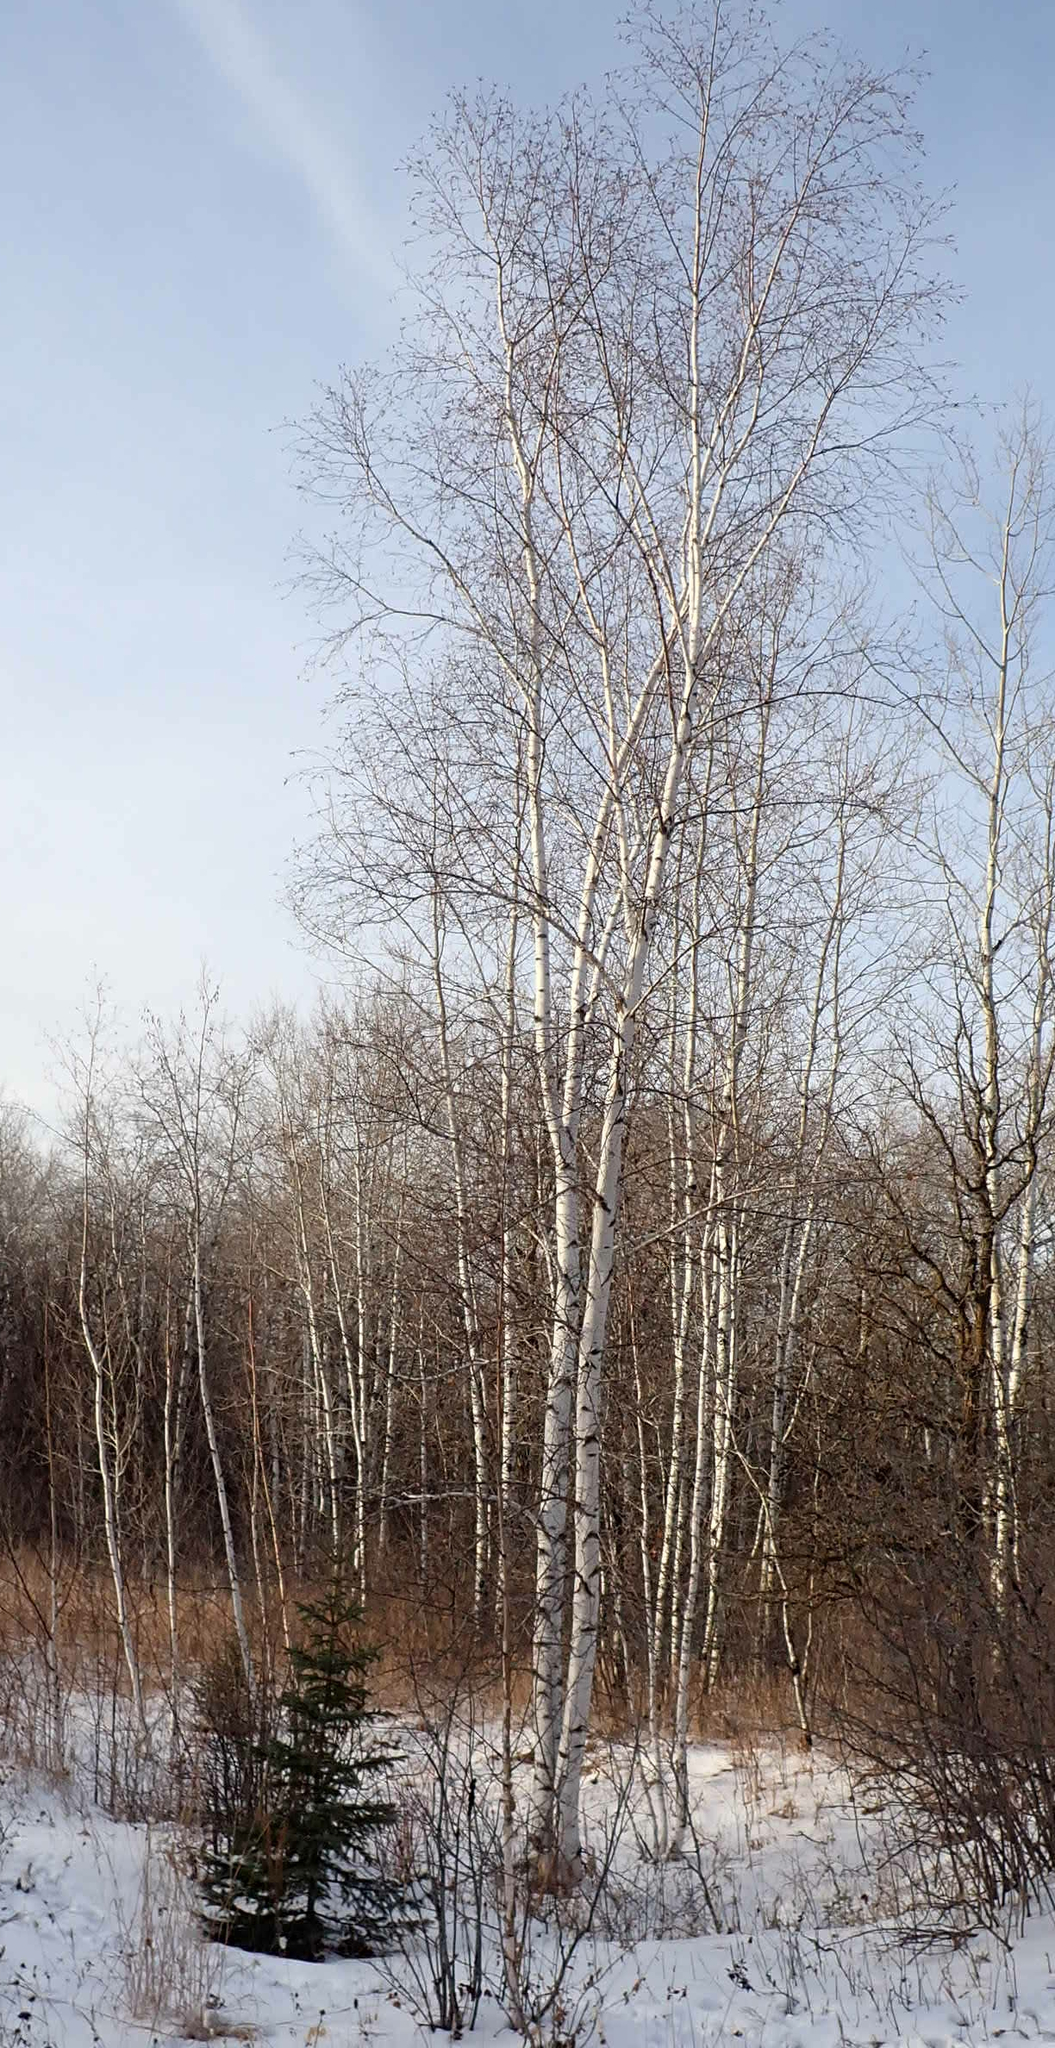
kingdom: Plantae
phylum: Tracheophyta
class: Magnoliopsida
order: Fagales
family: Betulaceae
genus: Betula
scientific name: Betula papyrifera
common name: Paper birch
